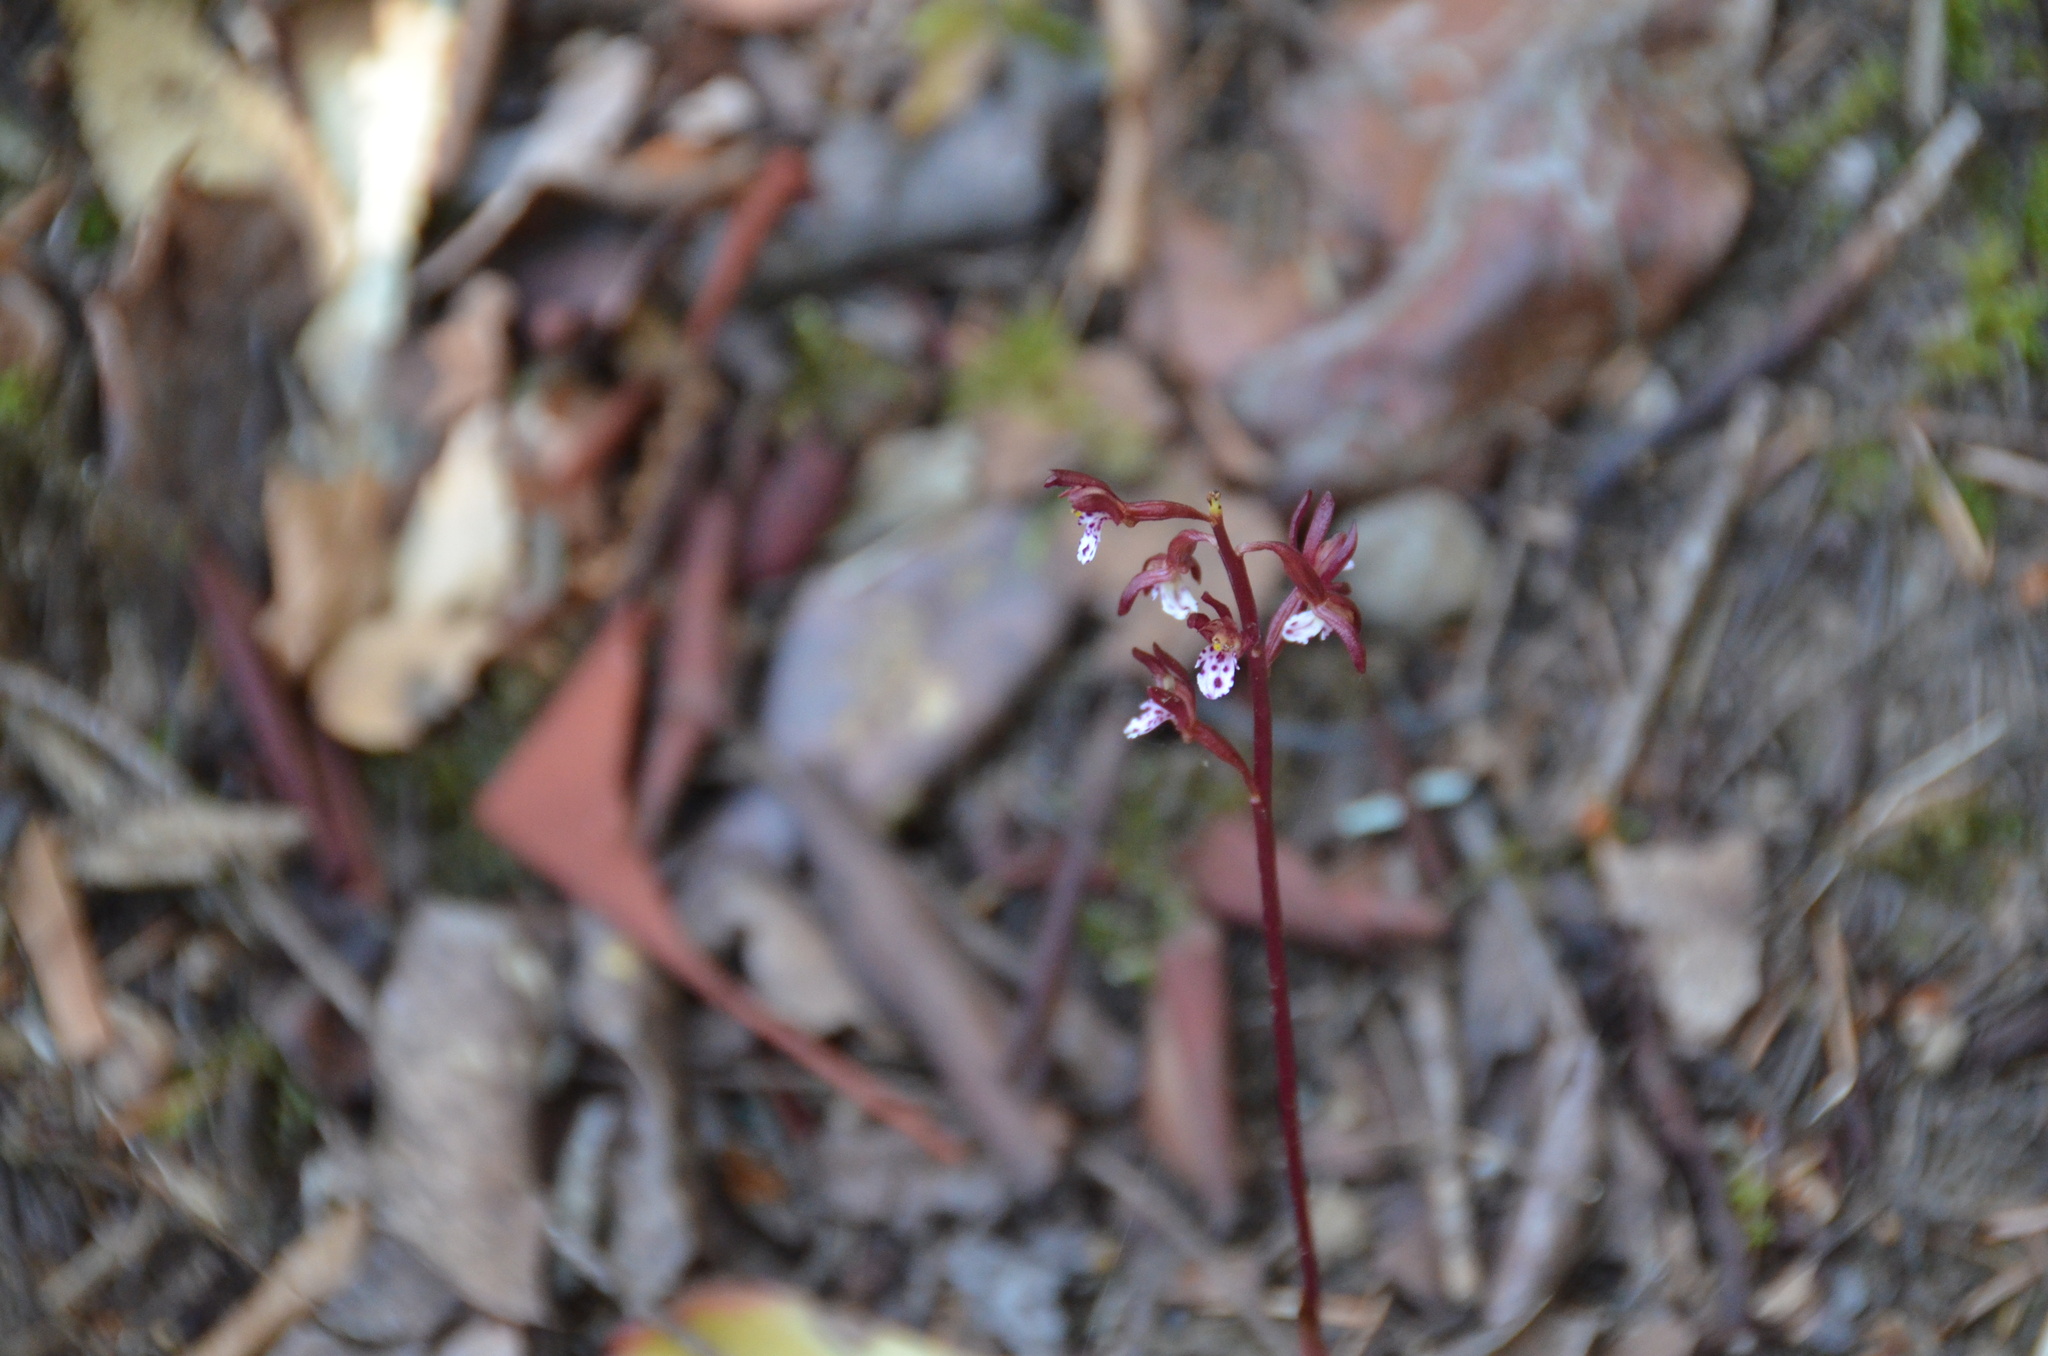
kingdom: Plantae
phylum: Tracheophyta
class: Liliopsida
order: Asparagales
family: Orchidaceae
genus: Corallorhiza
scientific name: Corallorhiza maculata
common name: Spotted coralroot
